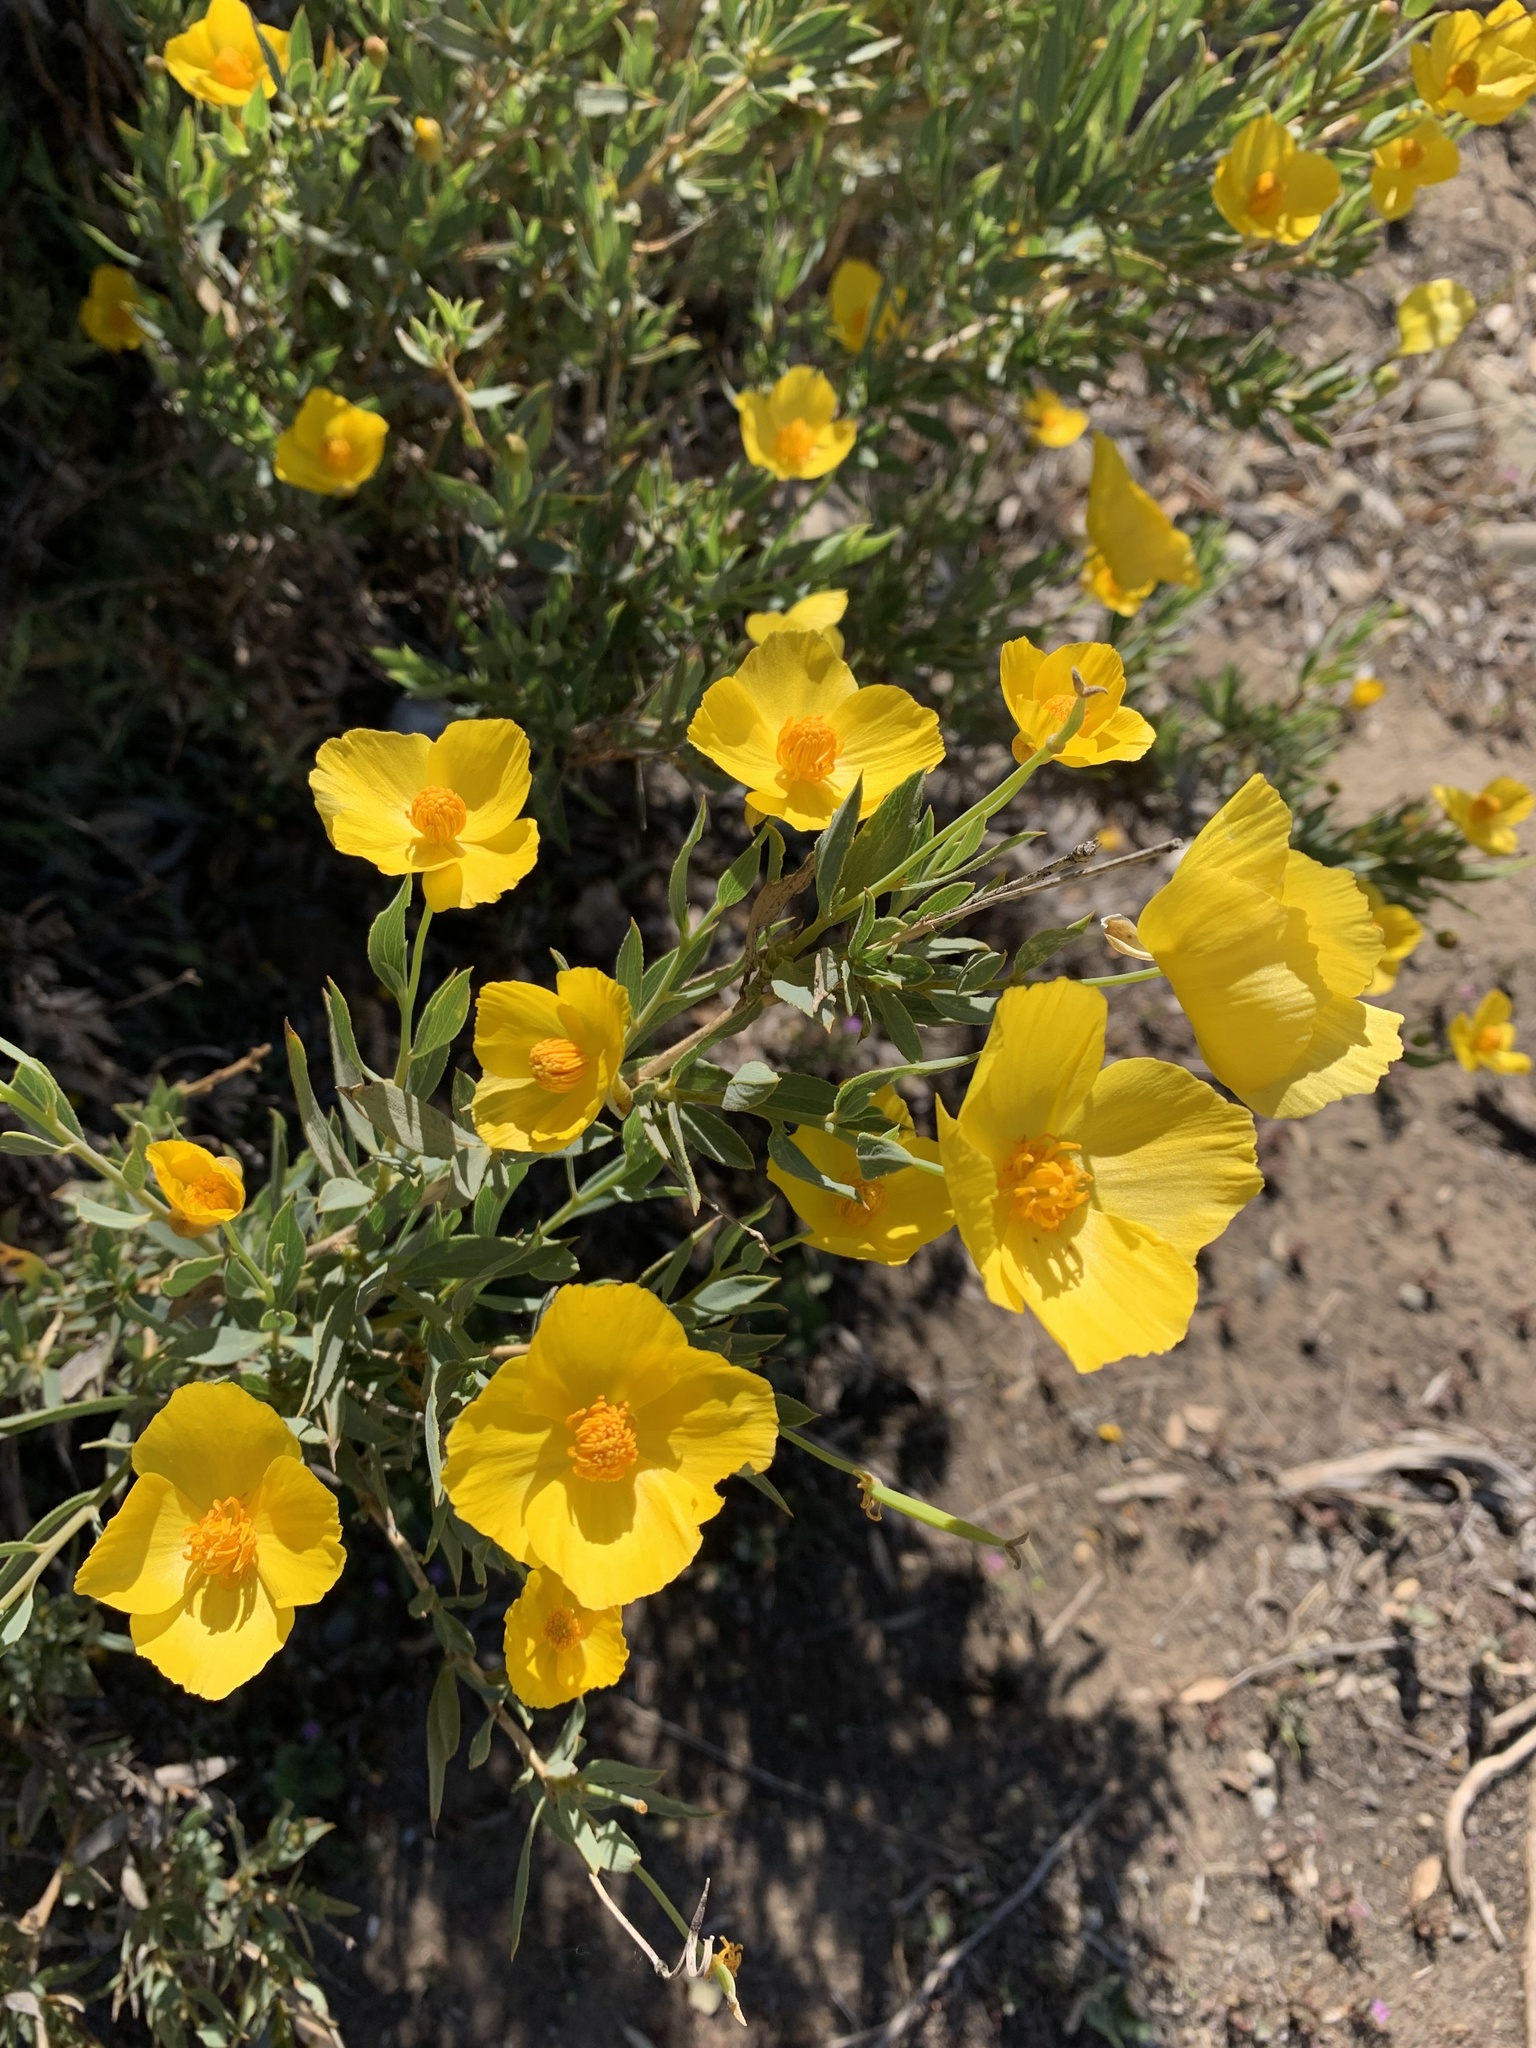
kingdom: Plantae
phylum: Tracheophyta
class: Magnoliopsida
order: Ranunculales
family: Papaveraceae
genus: Dendromecon
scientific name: Dendromecon rigida
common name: Tree poppy
